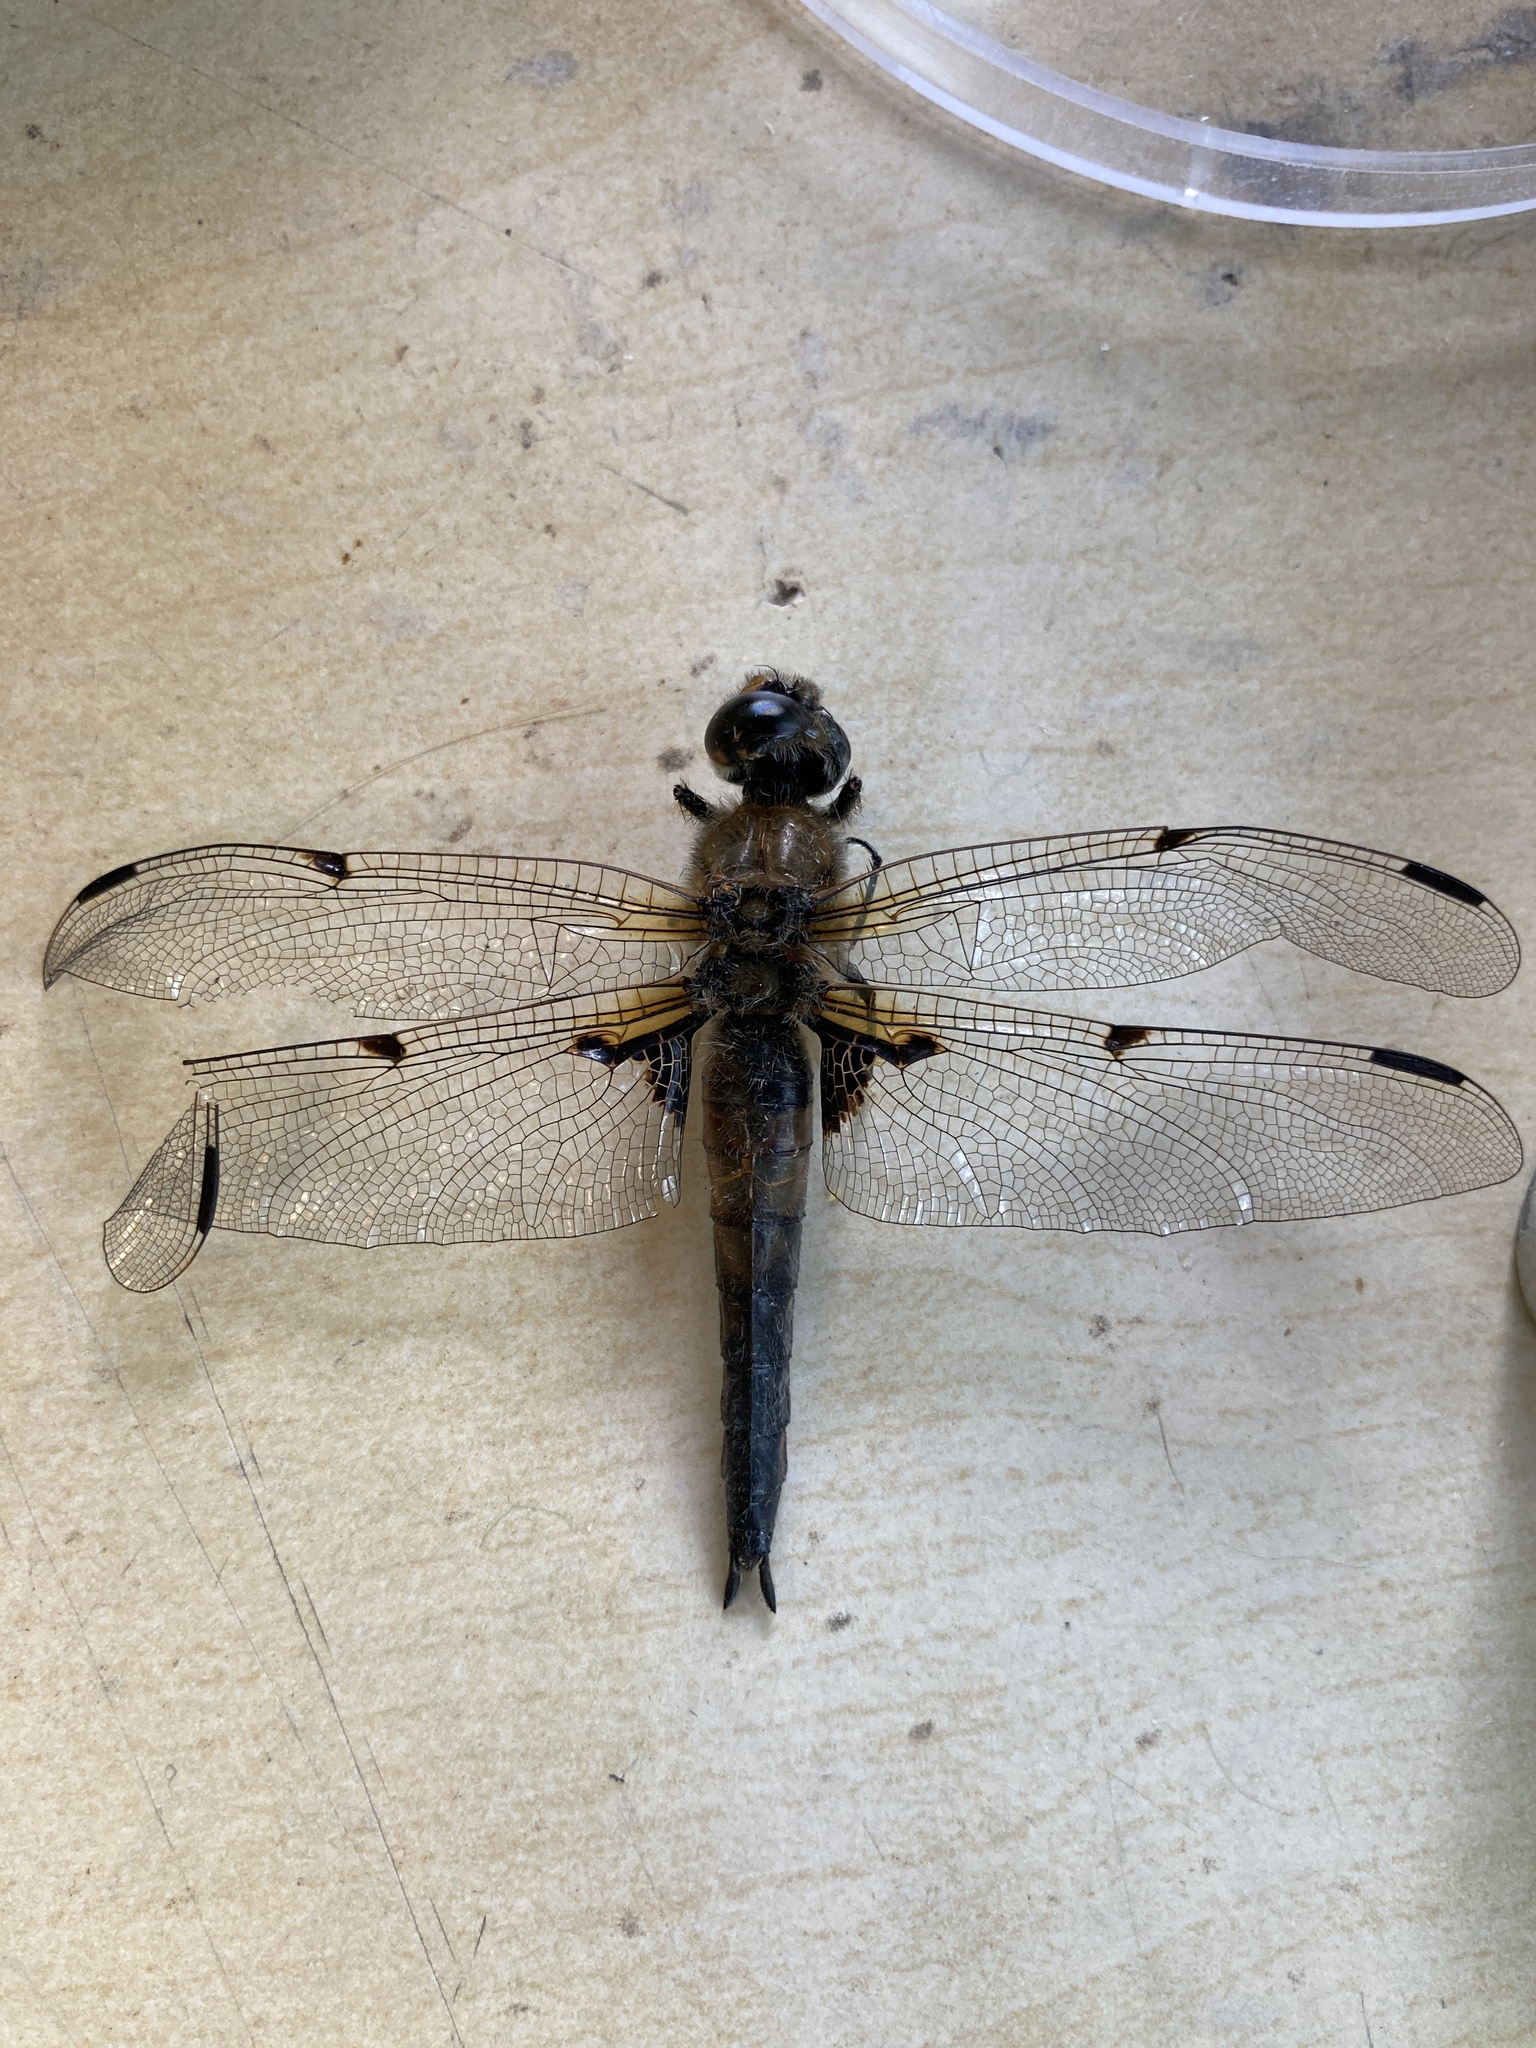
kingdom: Animalia
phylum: Arthropoda
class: Insecta
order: Odonata
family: Libellulidae
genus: Libellula
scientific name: Libellula quadrimaculata
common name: Four-spotted chaser
